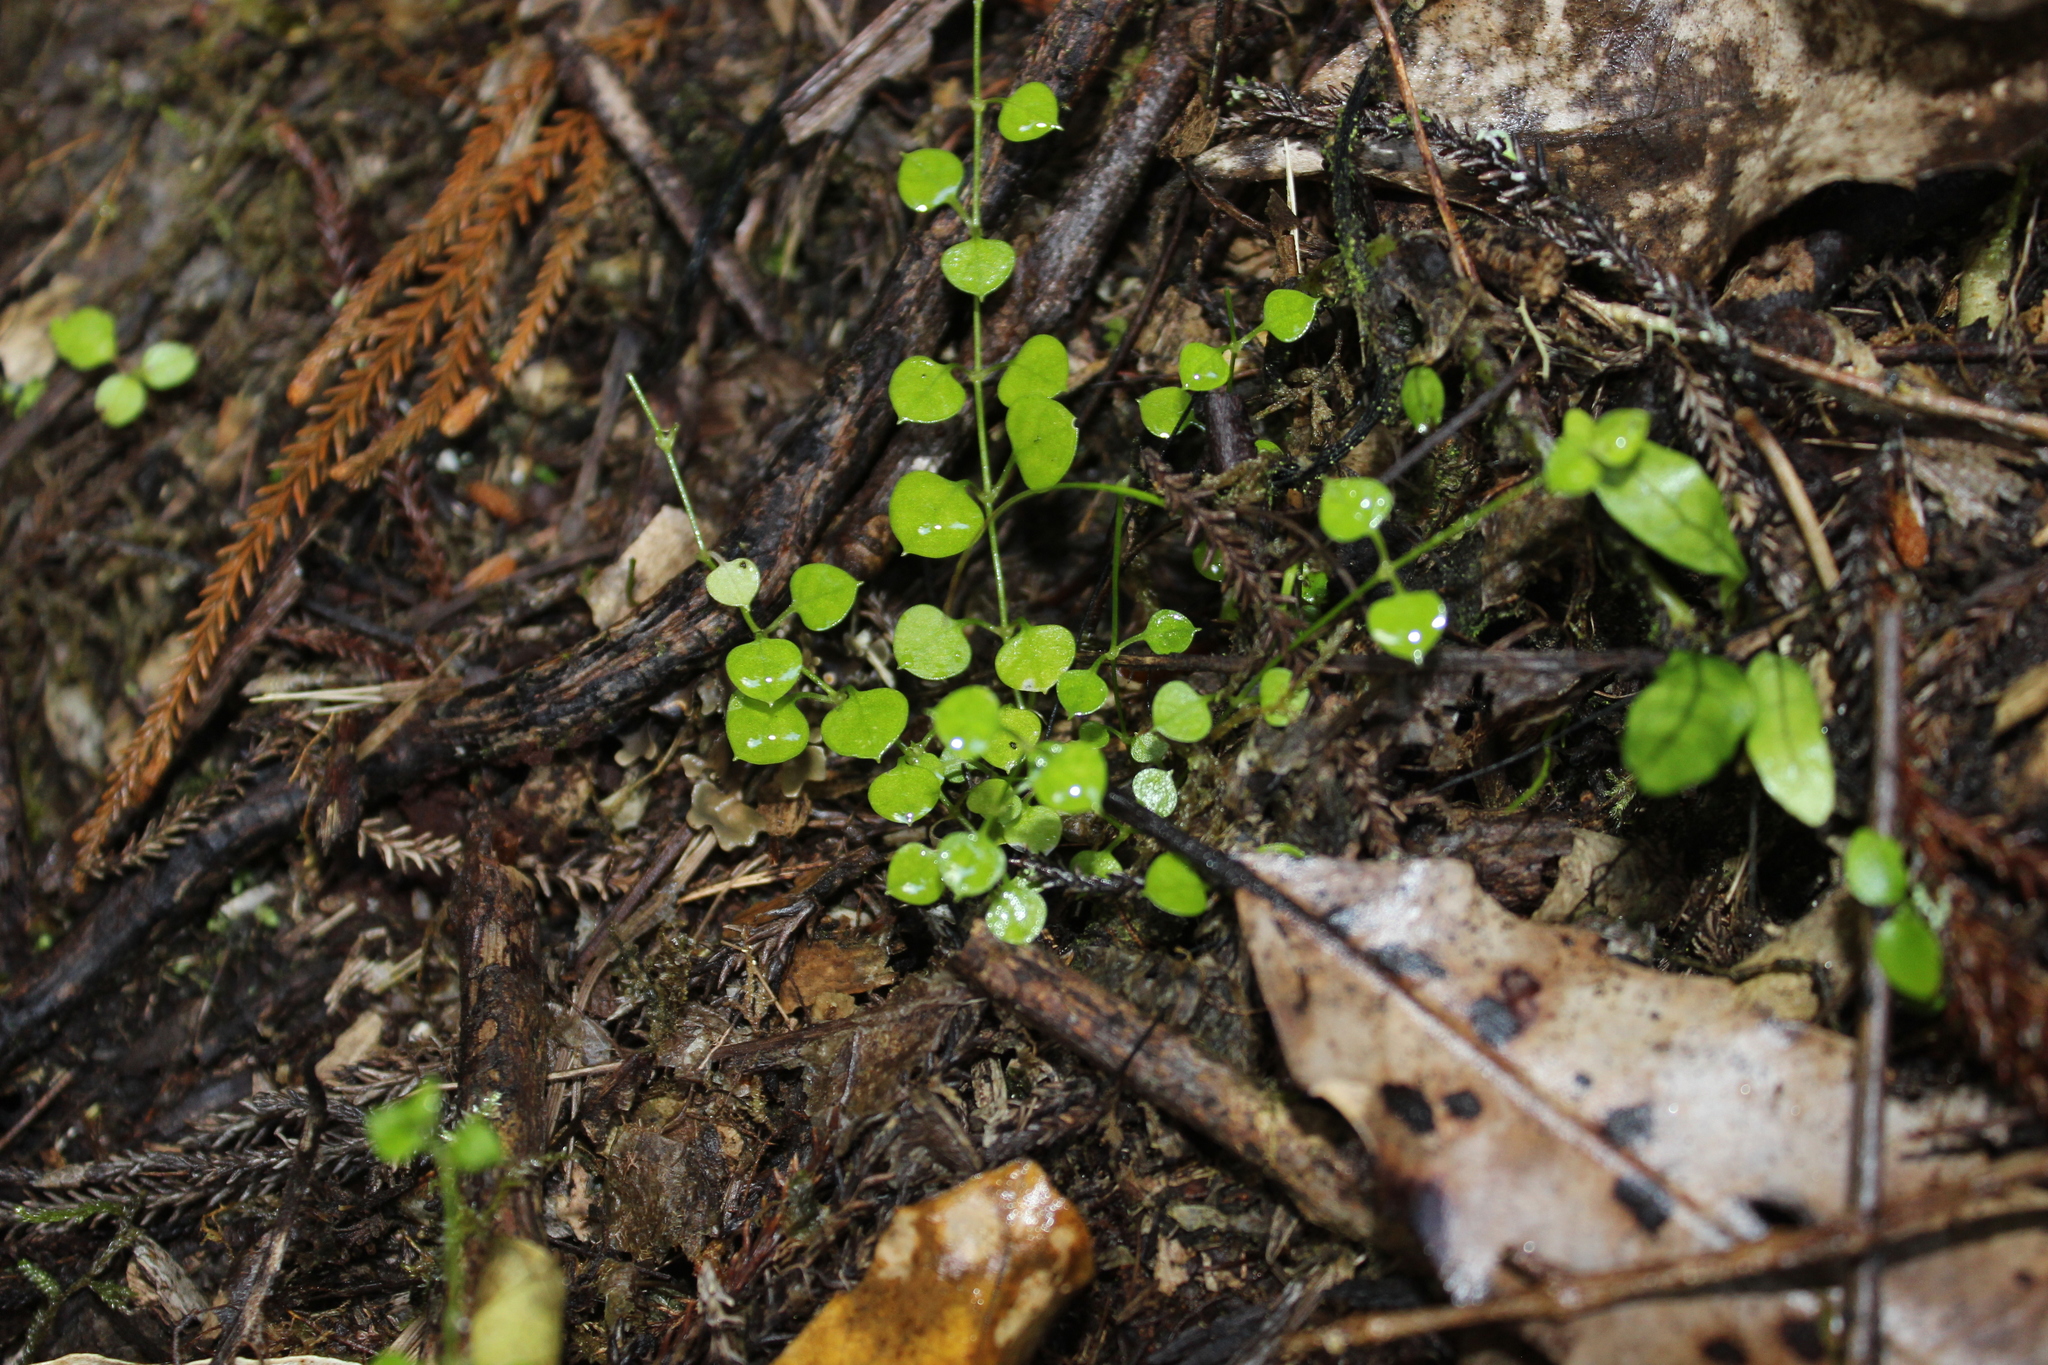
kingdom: Plantae
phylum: Tracheophyta
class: Magnoliopsida
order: Caryophyllales
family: Caryophyllaceae
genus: Stellaria
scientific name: Stellaria parviflora
